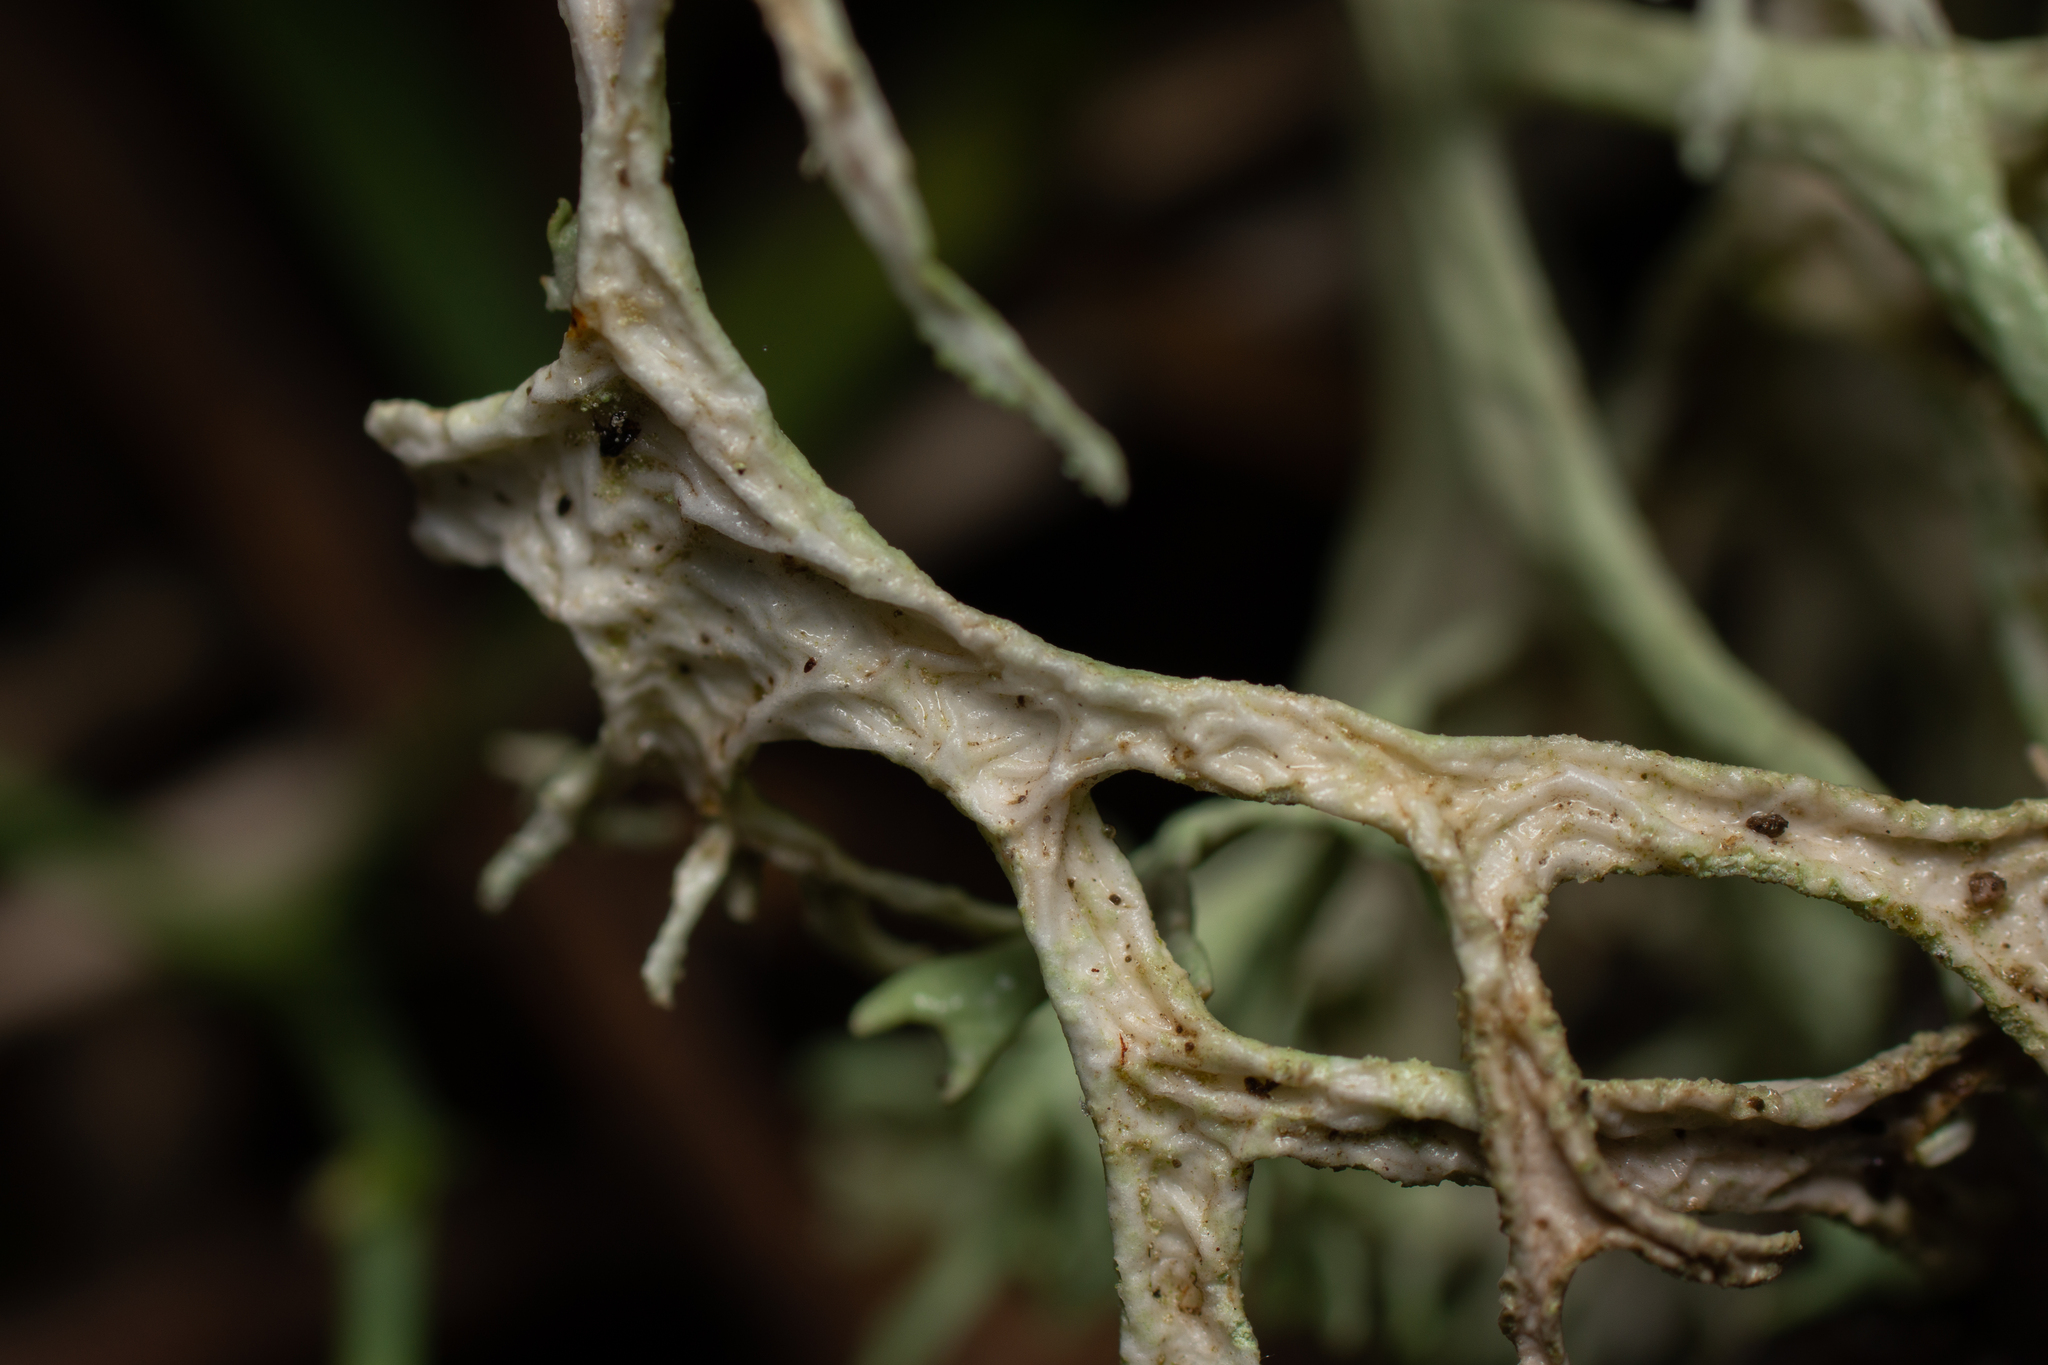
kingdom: Fungi
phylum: Ascomycota
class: Lecanoromycetes
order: Lecanorales
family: Parmeliaceae
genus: Evernia
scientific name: Evernia prunastri
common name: Oak moss
